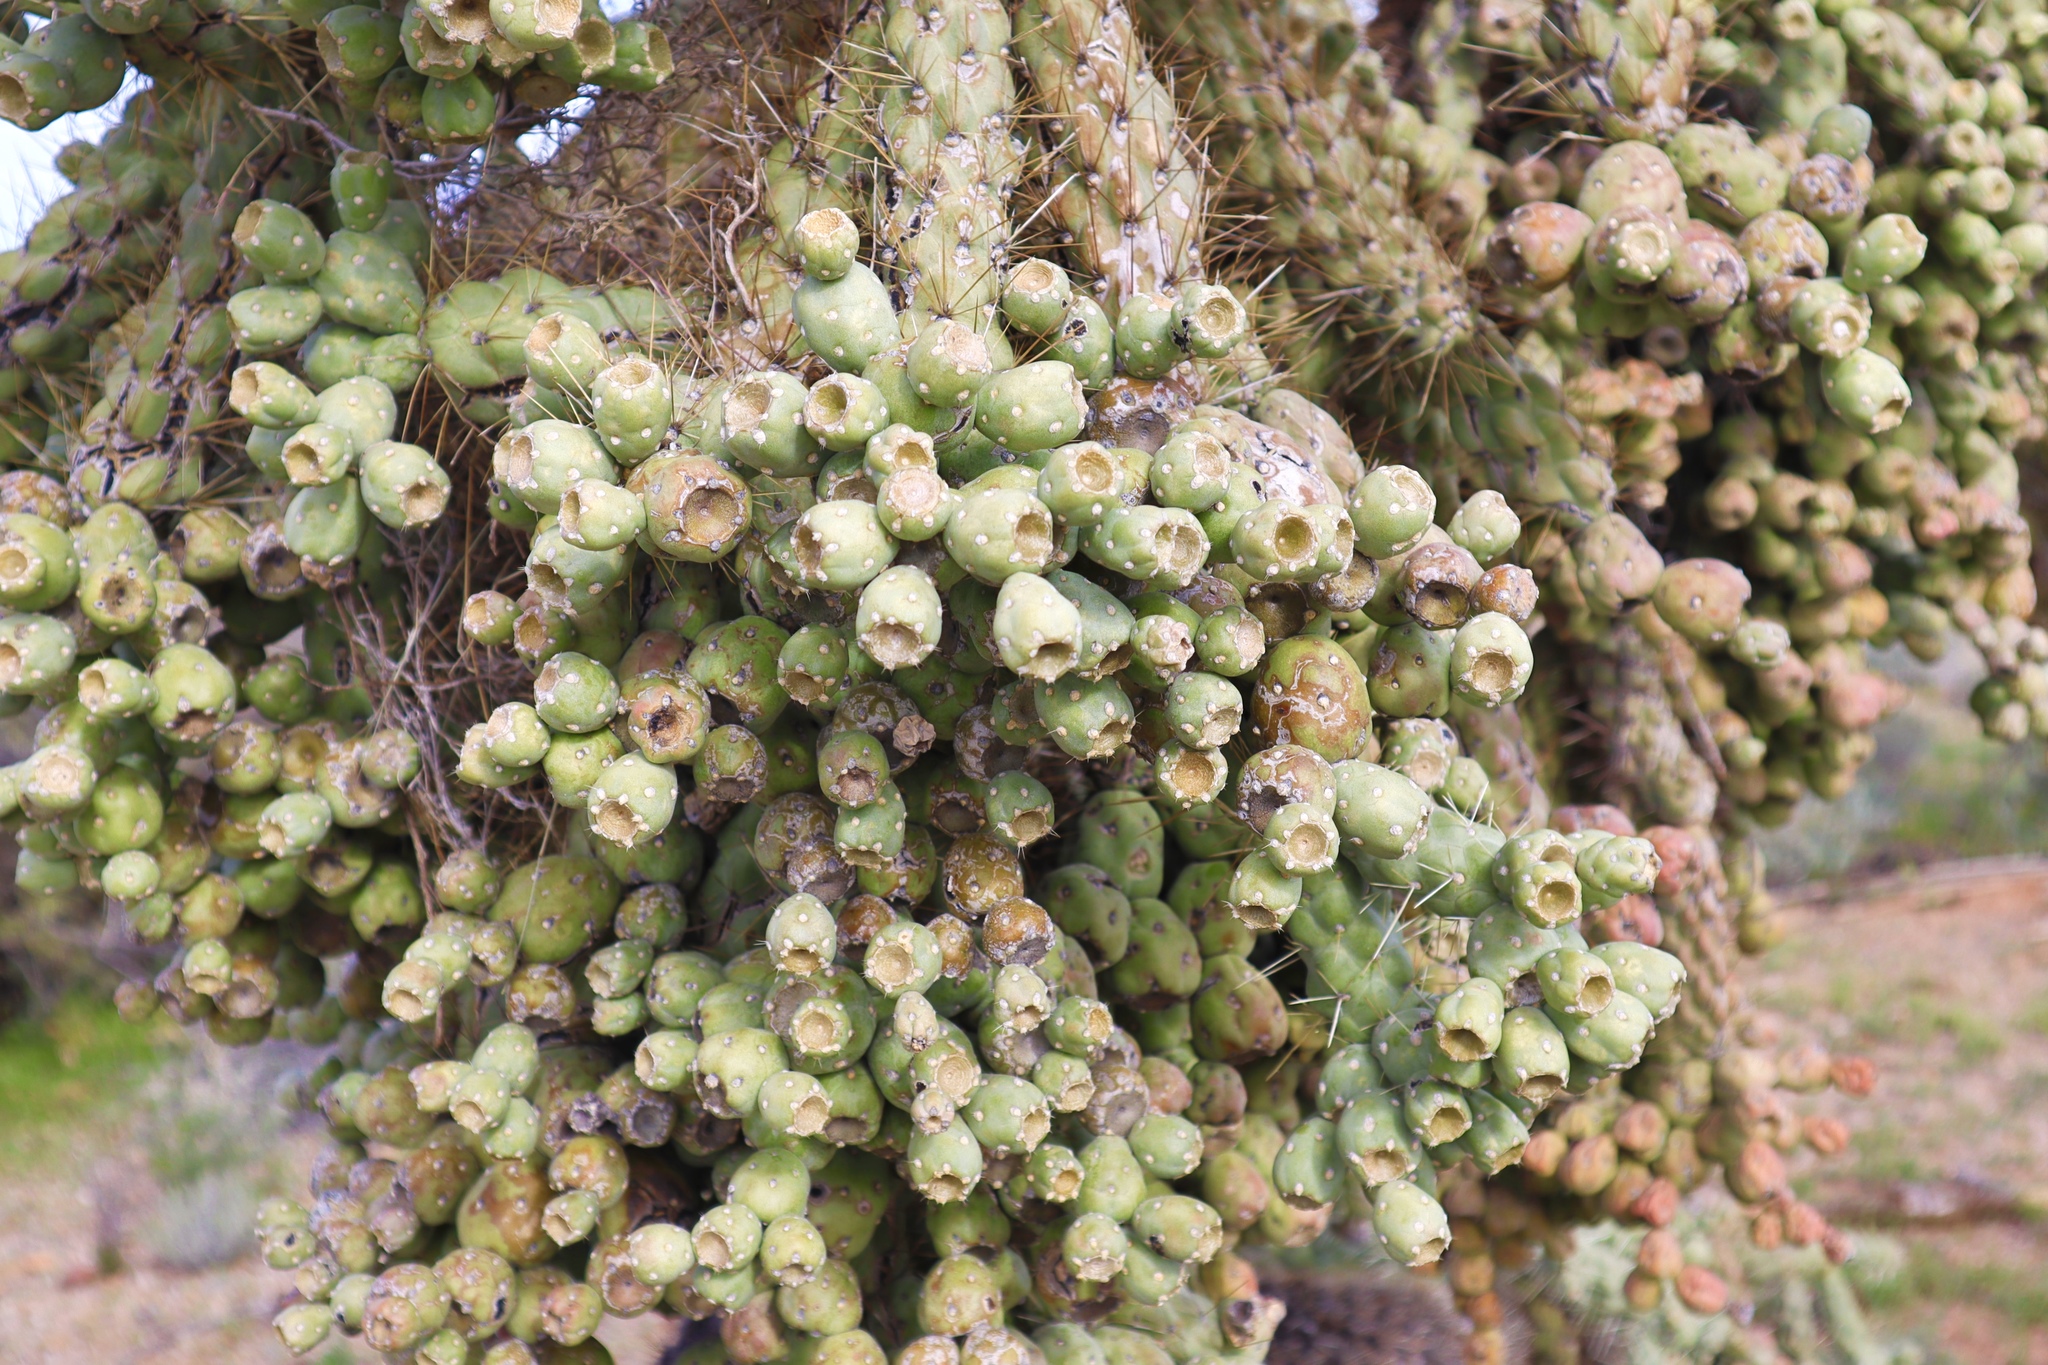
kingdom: Plantae
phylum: Tracheophyta
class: Magnoliopsida
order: Caryophyllales
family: Cactaceae
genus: Cylindropuntia
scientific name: Cylindropuntia fulgida
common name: Jumping cholla
